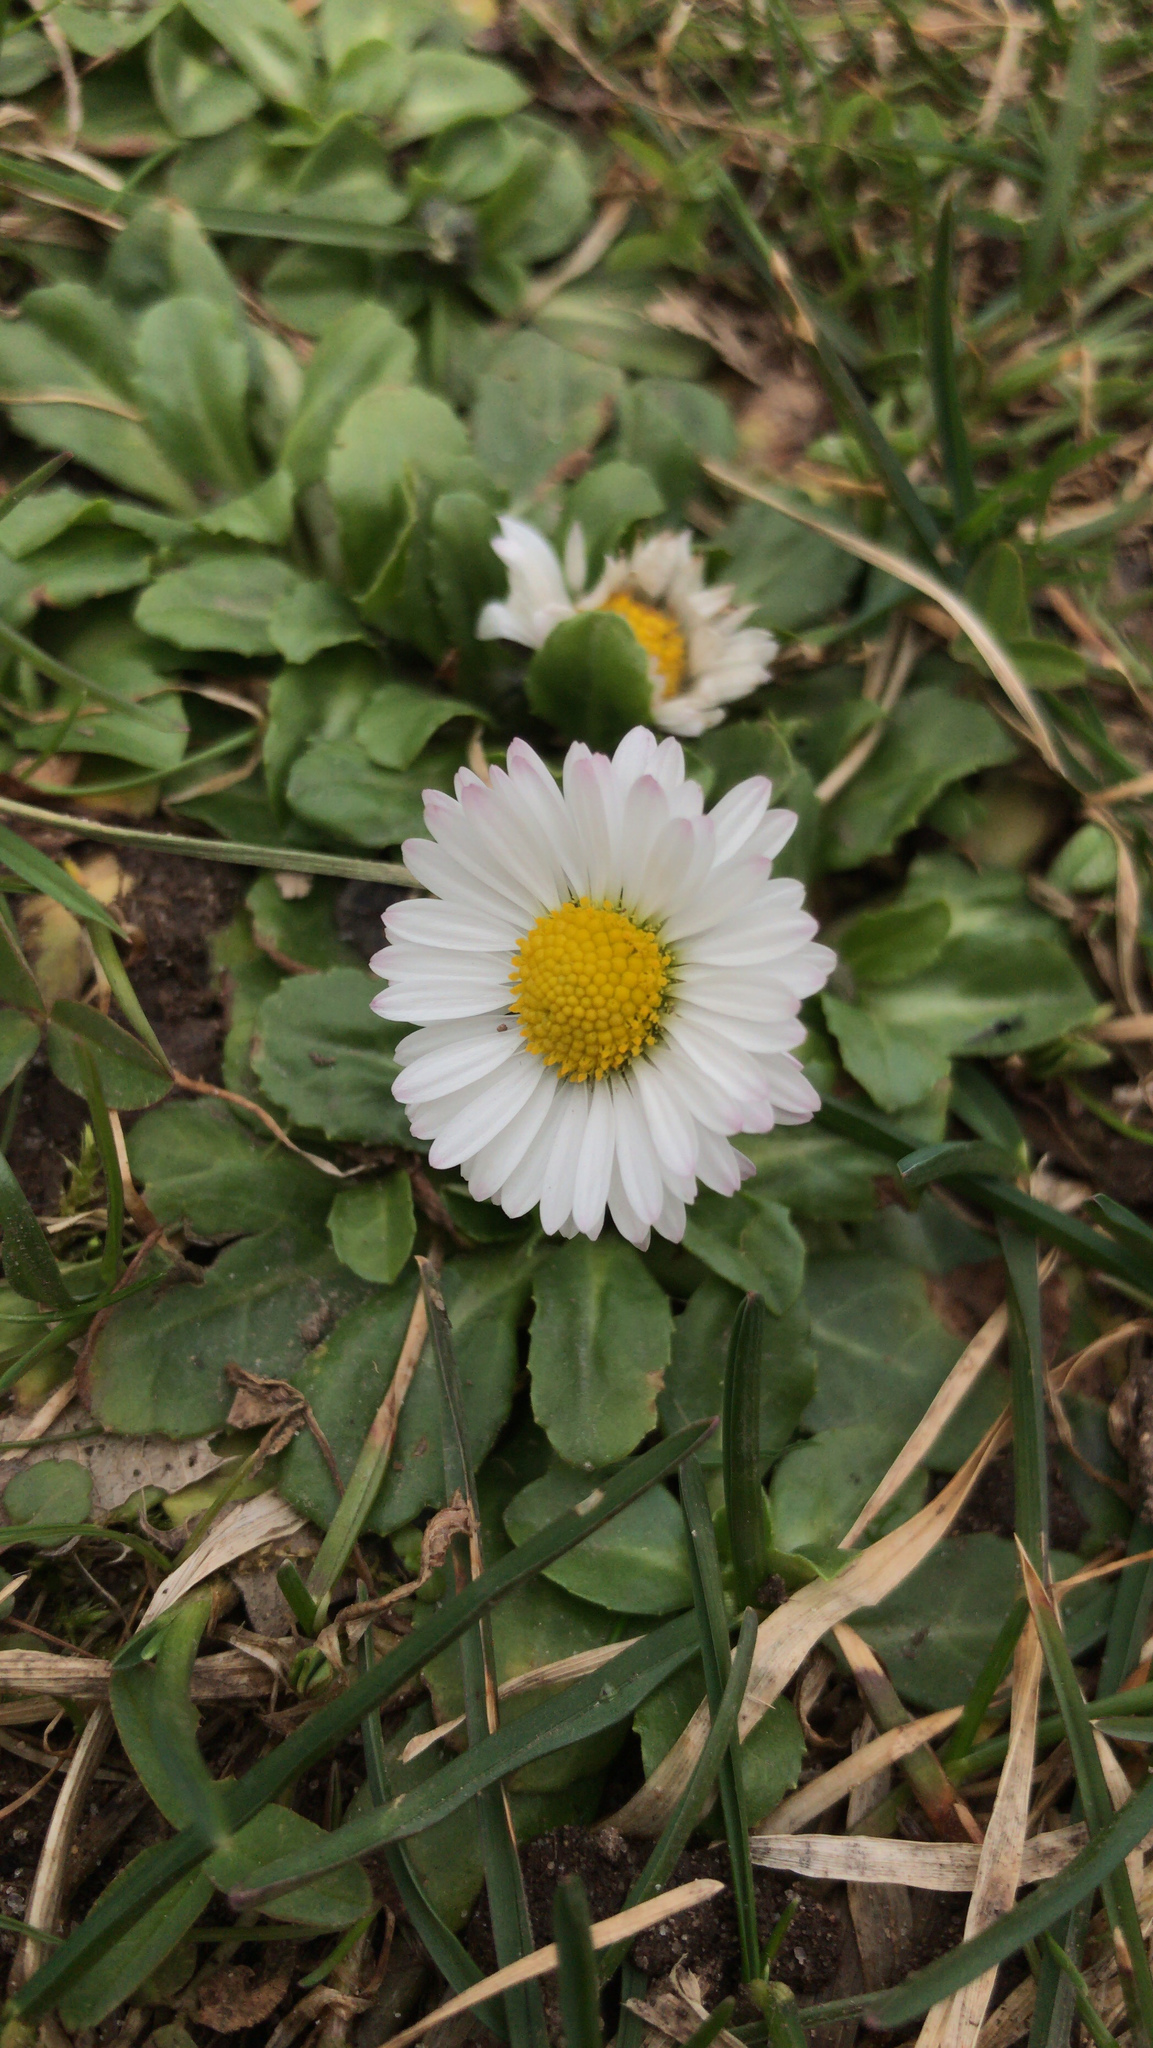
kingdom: Plantae
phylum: Tracheophyta
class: Magnoliopsida
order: Asterales
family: Asteraceae
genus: Bellis
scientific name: Bellis perennis
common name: Lawndaisy
